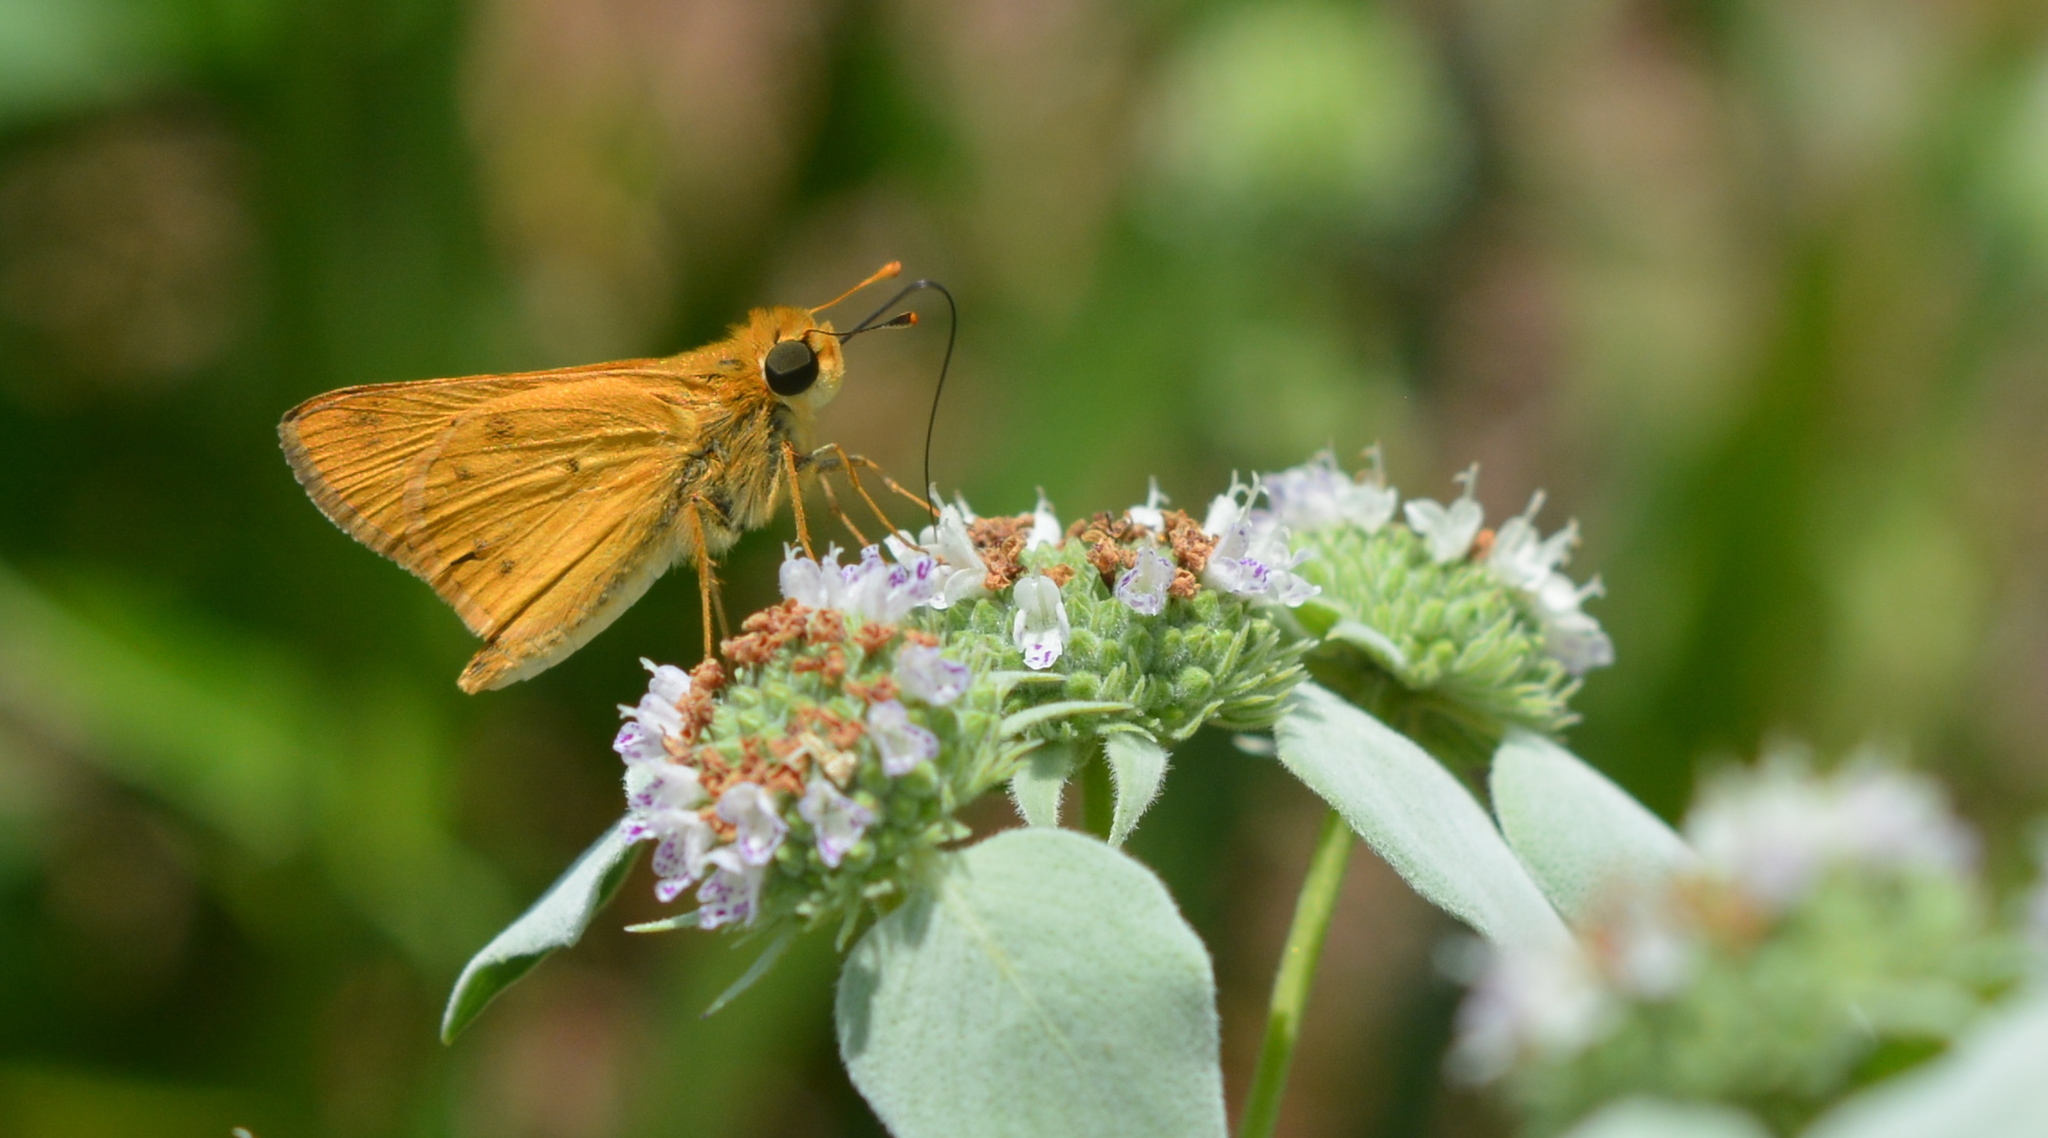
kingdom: Animalia
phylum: Arthropoda
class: Insecta
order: Lepidoptera
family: Hesperiidae
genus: Hylephila
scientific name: Hylephila phyleus
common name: Fiery skipper
